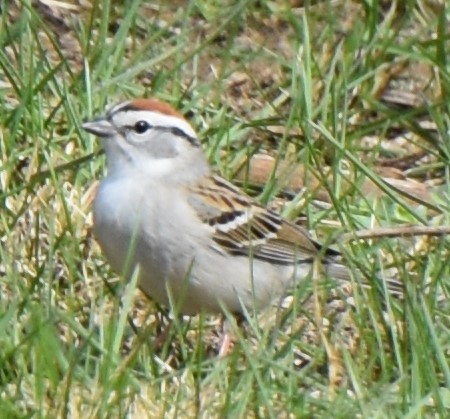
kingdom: Animalia
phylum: Chordata
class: Aves
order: Passeriformes
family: Passerellidae
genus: Spizella
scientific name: Spizella passerina
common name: Chipping sparrow
